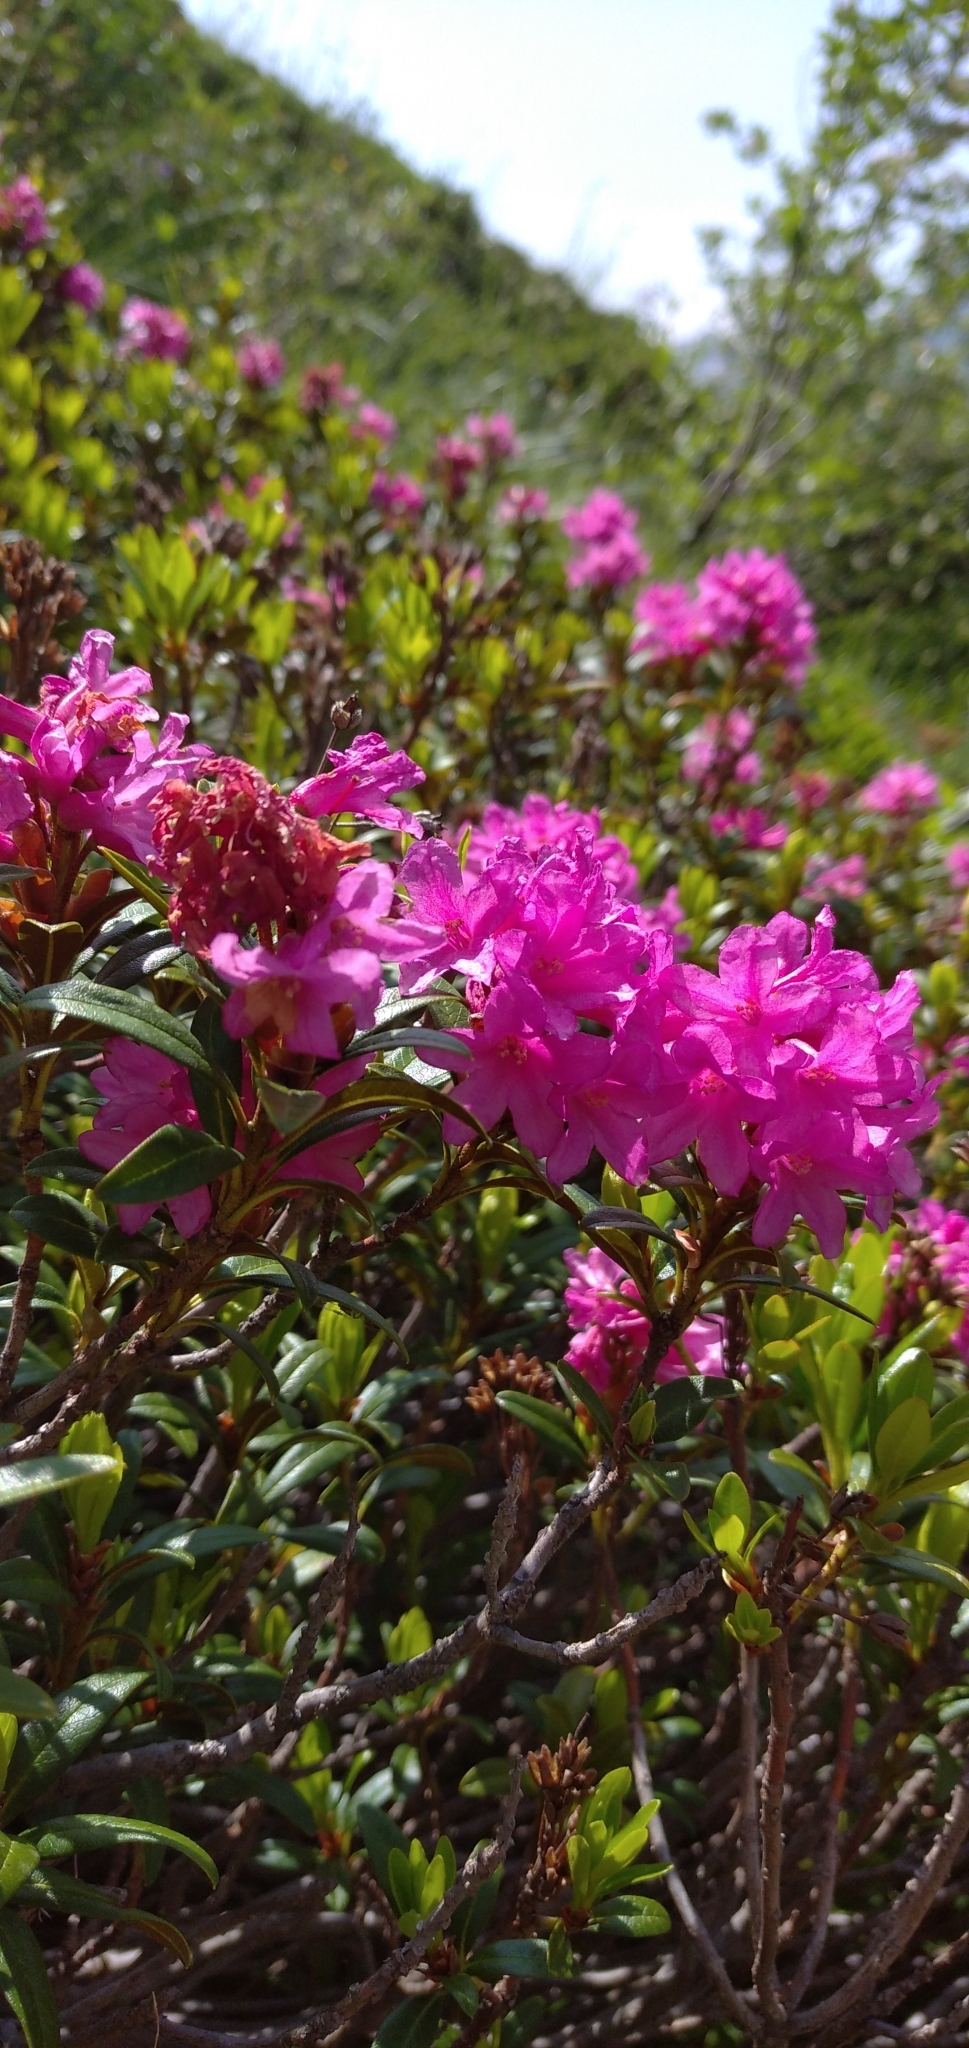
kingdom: Plantae
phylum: Tracheophyta
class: Magnoliopsida
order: Ericales
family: Ericaceae
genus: Rhododendron
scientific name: Rhododendron ferrugineum
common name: Alpenrose
